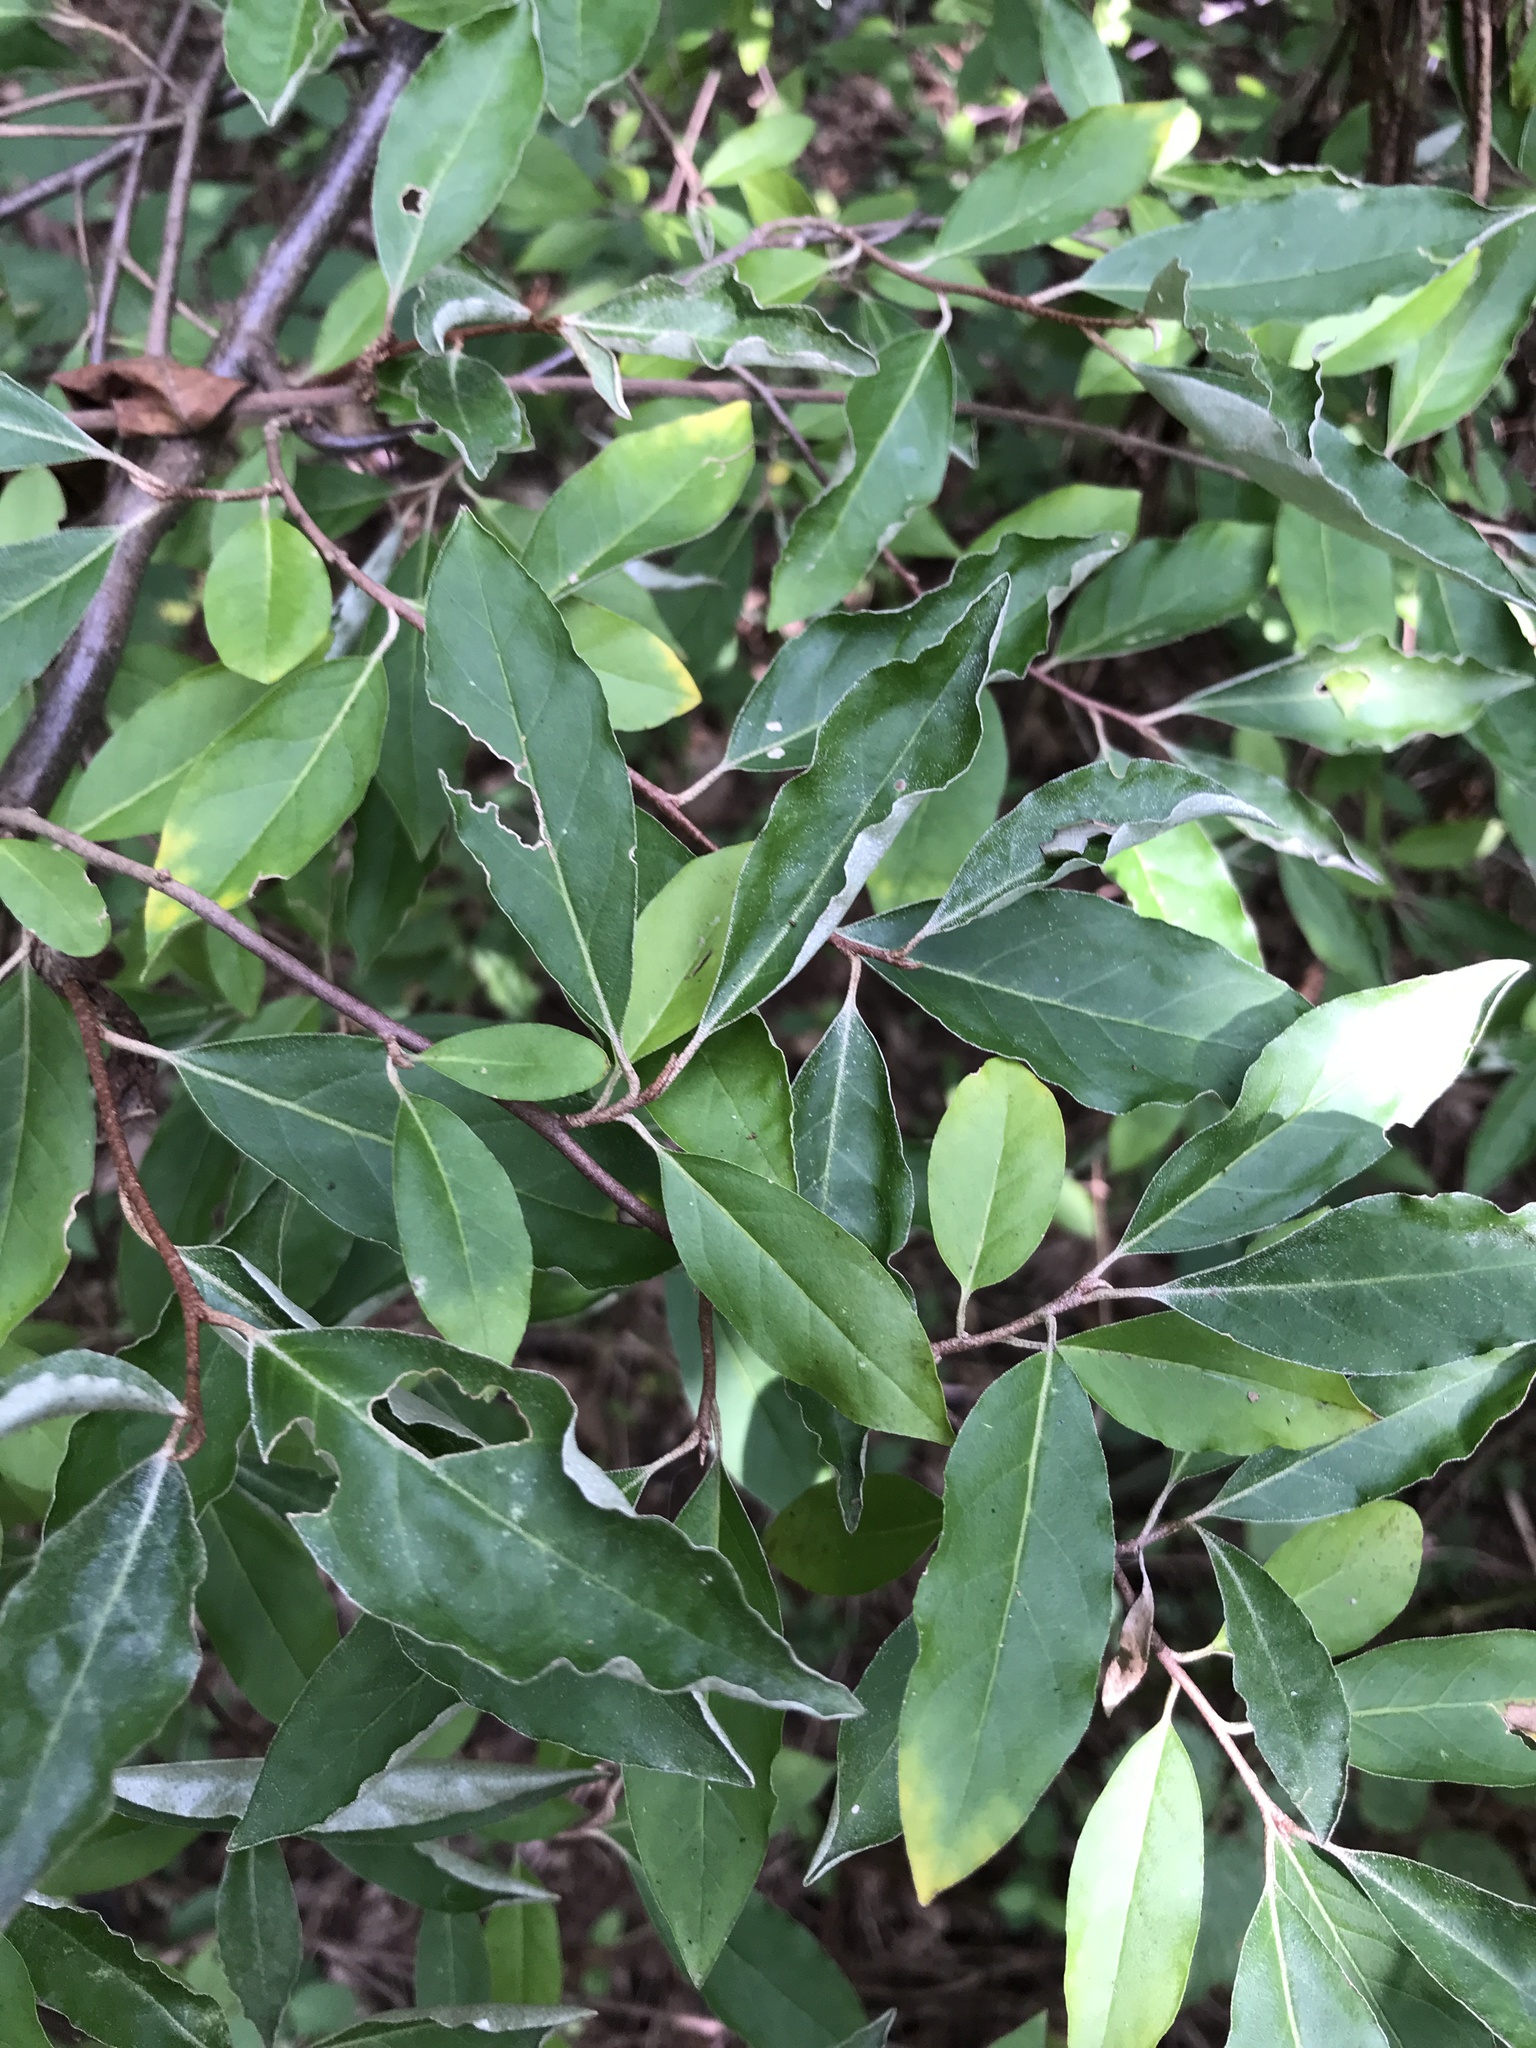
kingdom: Plantae
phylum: Tracheophyta
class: Magnoliopsida
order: Rosales
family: Elaeagnaceae
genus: Elaeagnus
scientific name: Elaeagnus umbellata
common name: Autumn olive
